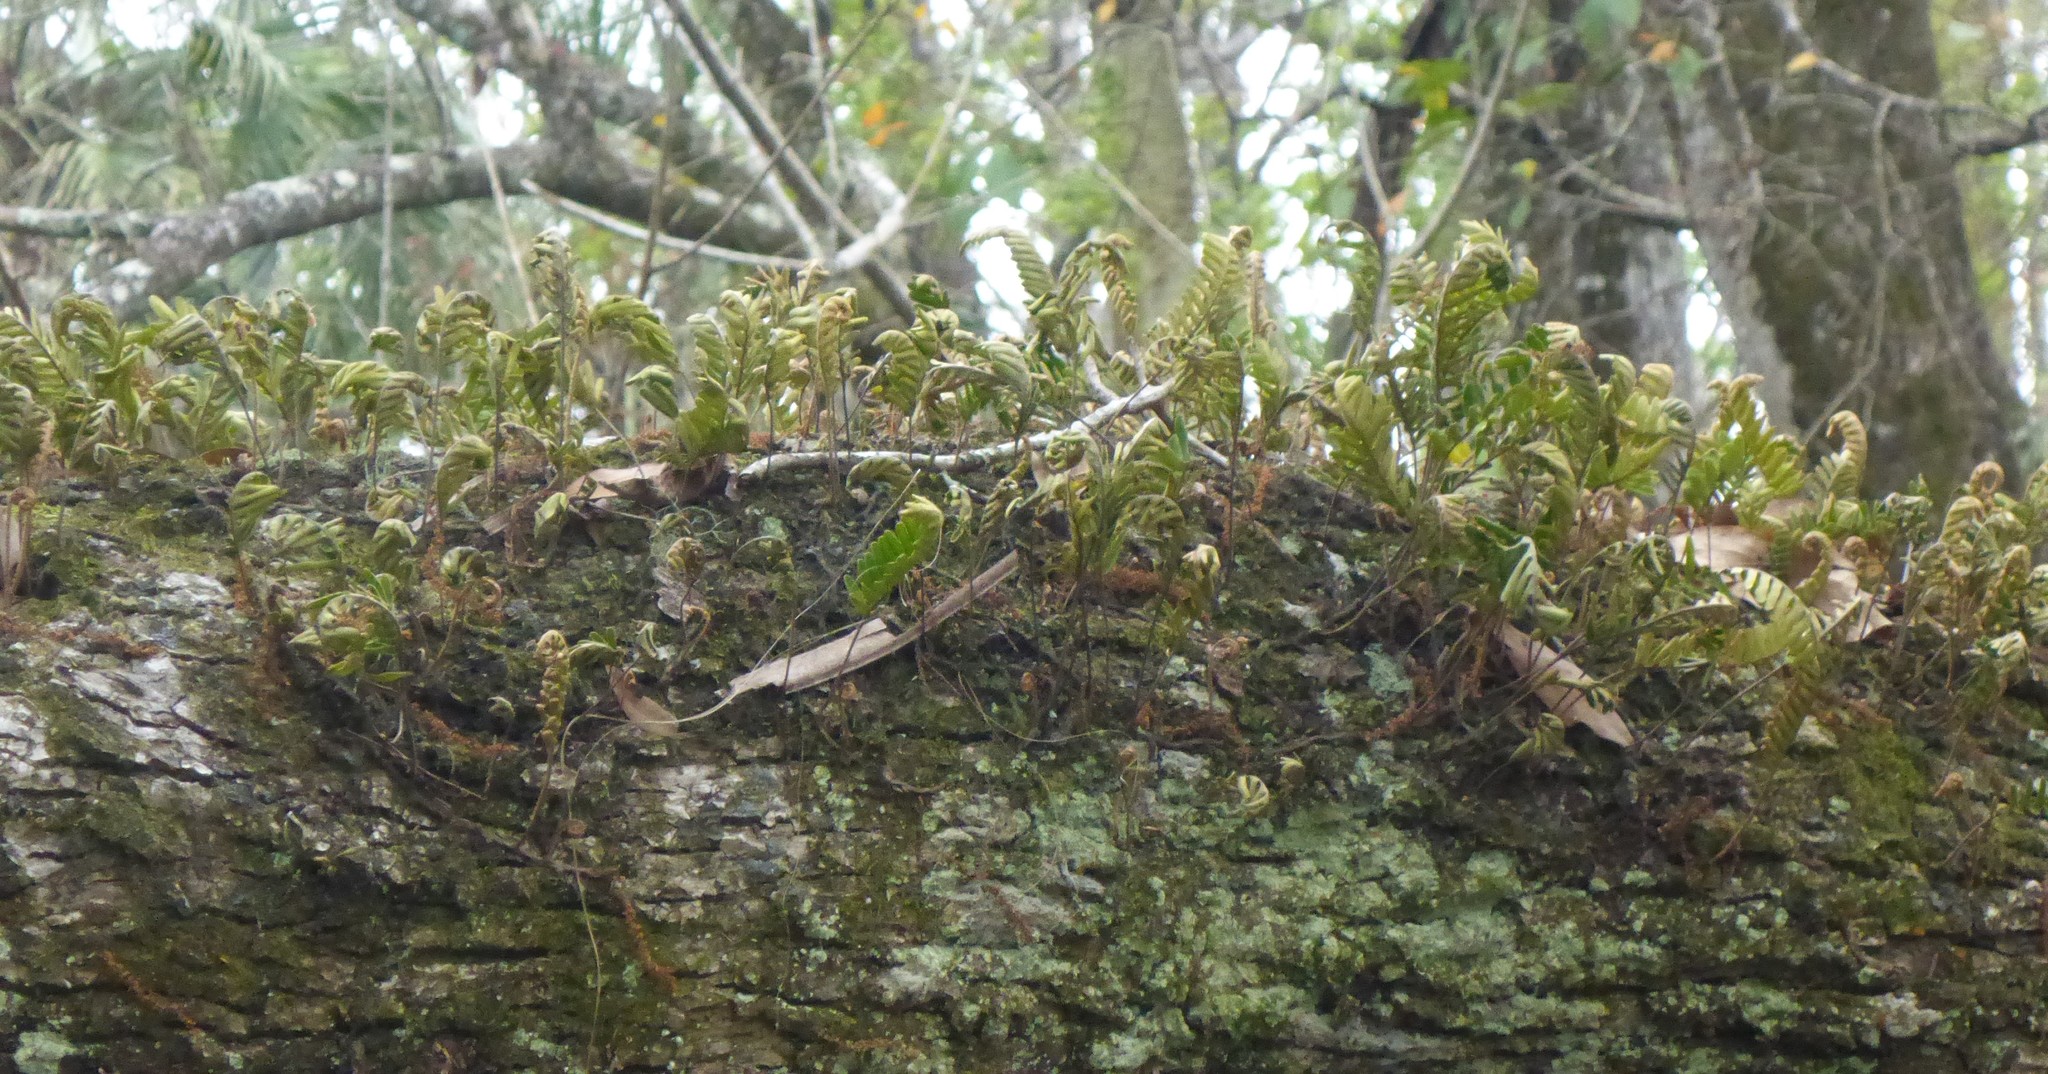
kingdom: Plantae
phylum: Tracheophyta
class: Polypodiopsida
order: Polypodiales
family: Polypodiaceae
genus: Pleopeltis
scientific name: Pleopeltis michauxiana
